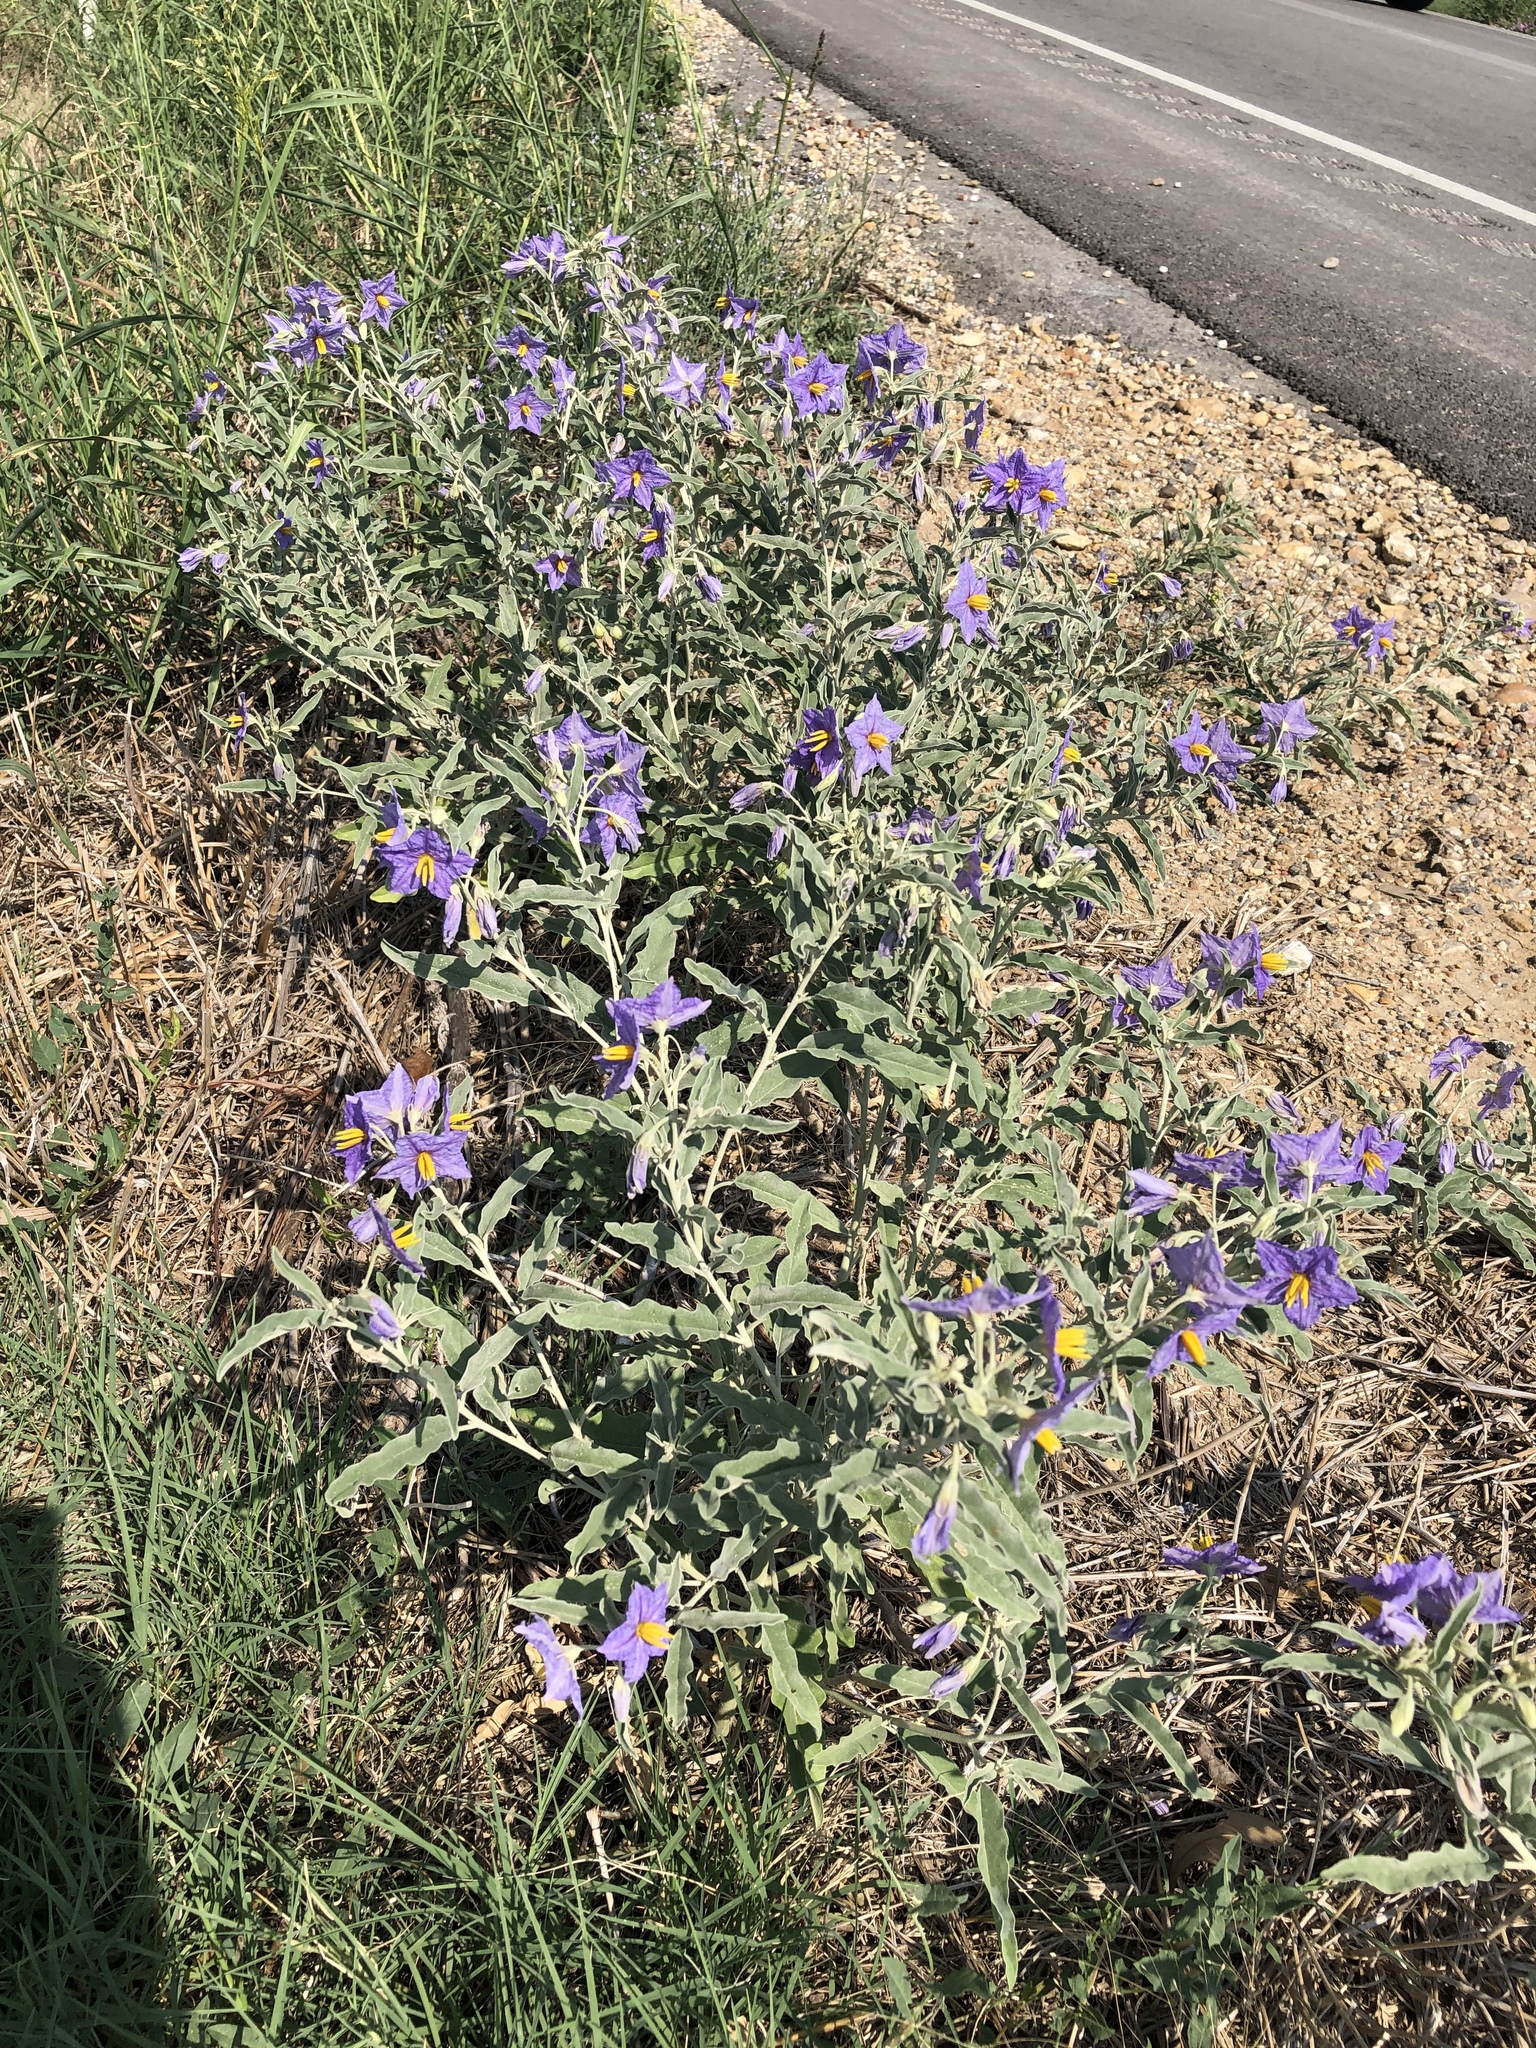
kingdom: Plantae
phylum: Tracheophyta
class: Magnoliopsida
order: Solanales
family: Solanaceae
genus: Solanum
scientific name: Solanum elaeagnifolium
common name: Silverleaf nightshade
